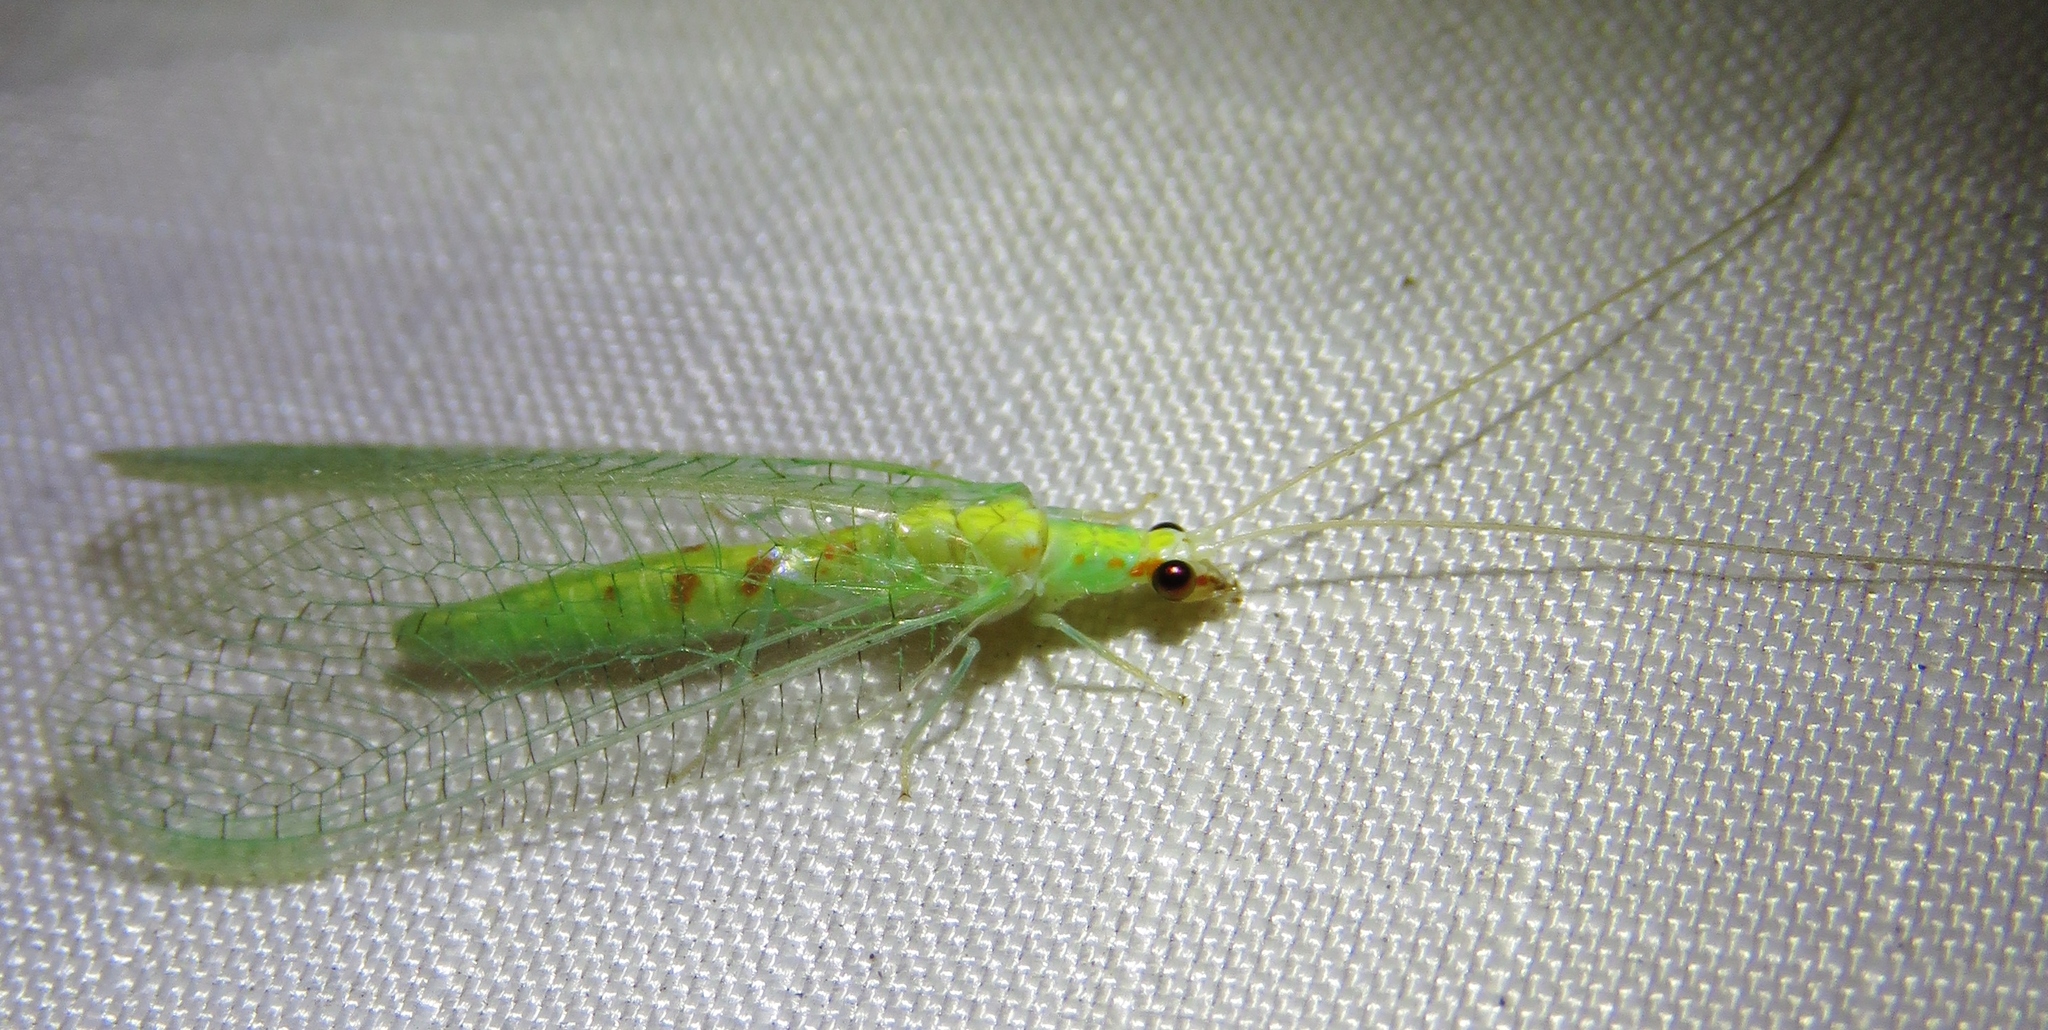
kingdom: Animalia
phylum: Arthropoda
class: Insecta
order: Neuroptera
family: Chrysopidae
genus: Chrysopa
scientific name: Chrysopa quadripunctata
